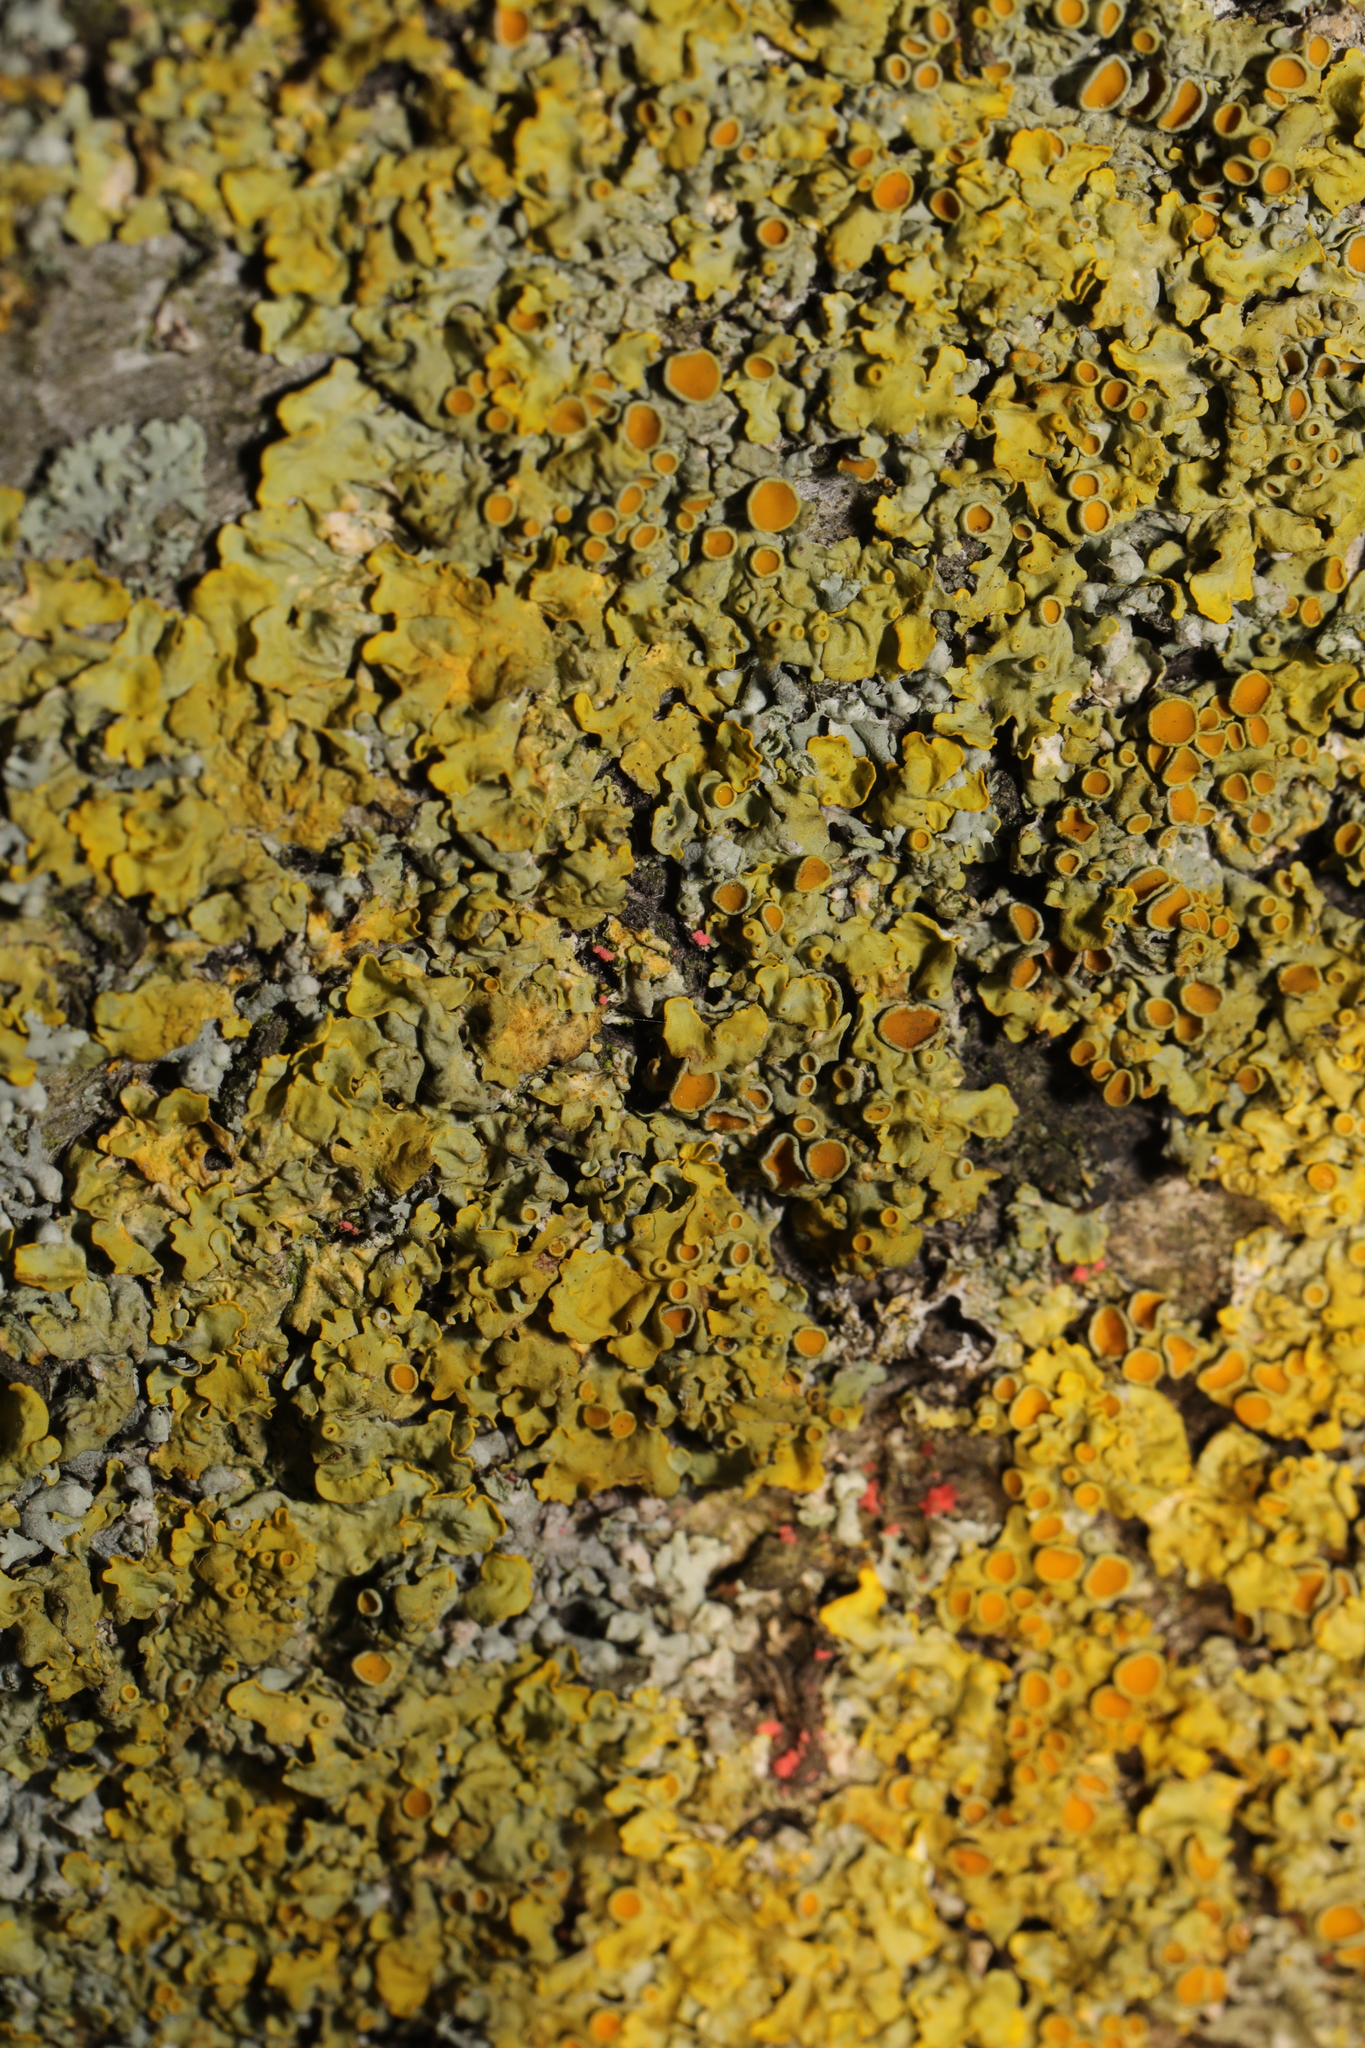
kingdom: Fungi
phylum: Ascomycota
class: Sordariomycetes
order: Hypocreales
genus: Illosporiopsis
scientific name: Illosporiopsis christiansenii
